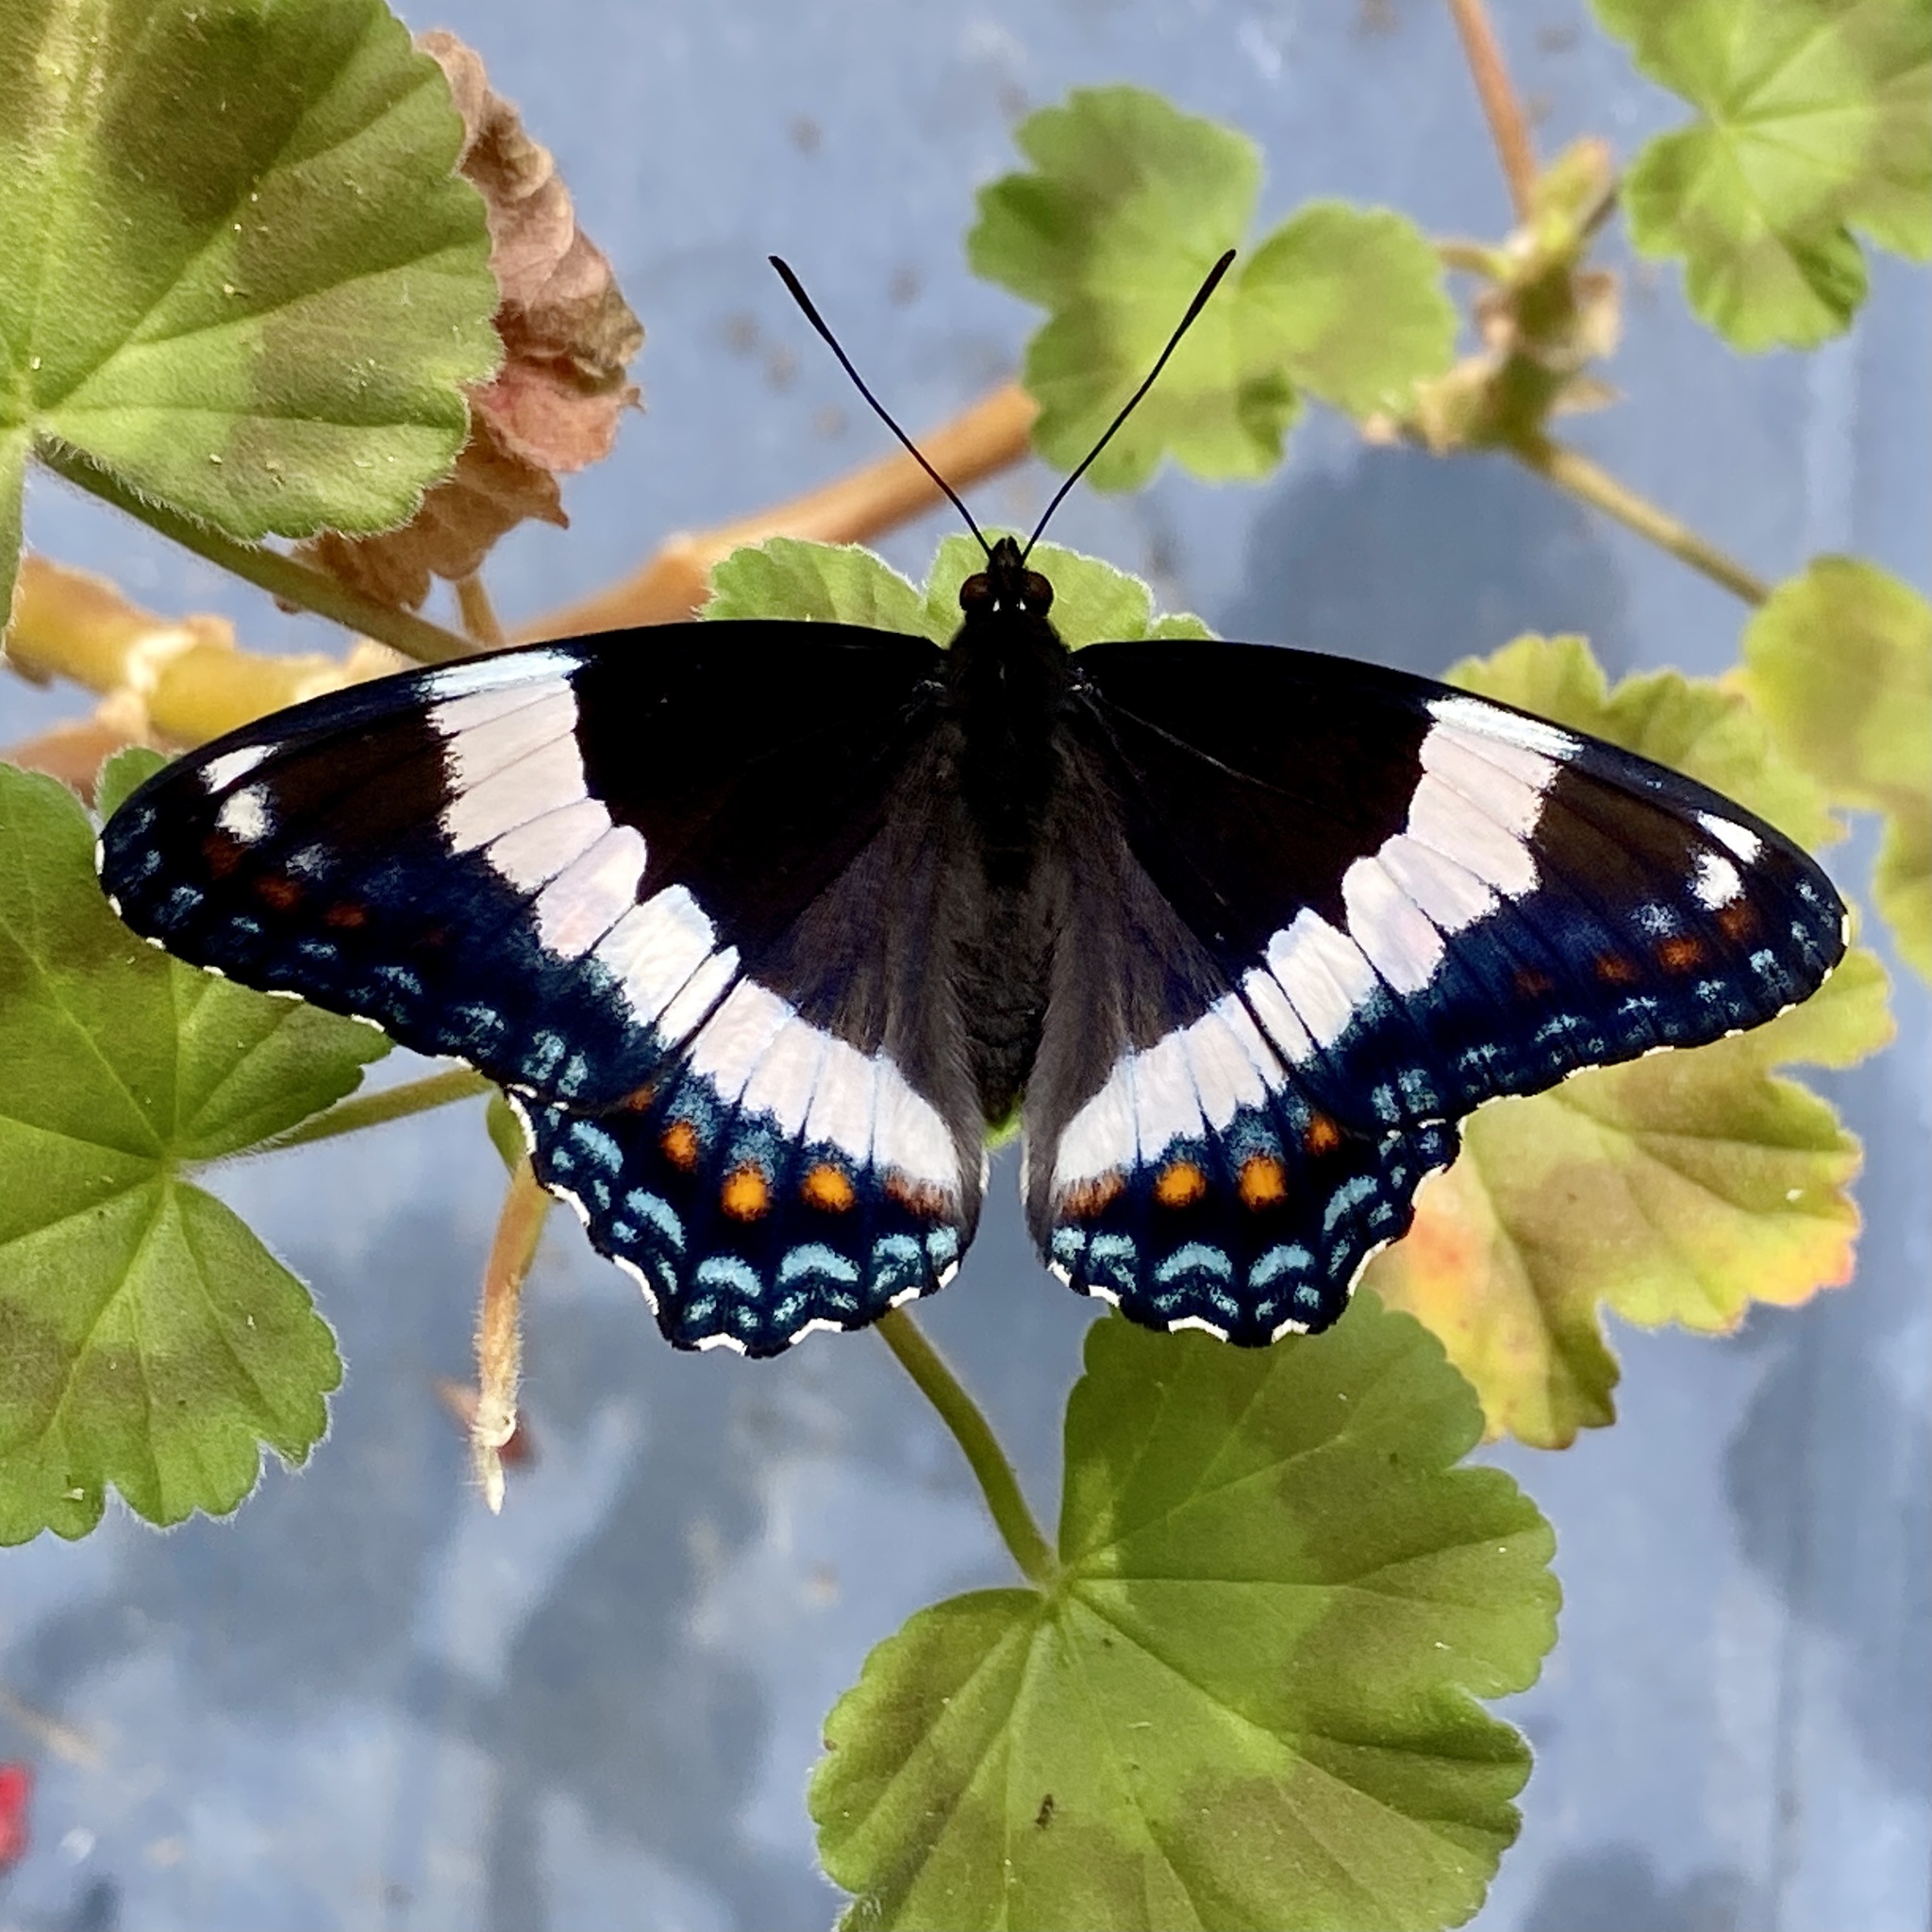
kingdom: Animalia
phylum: Arthropoda
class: Insecta
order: Lepidoptera
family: Nymphalidae
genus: Limenitis
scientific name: Limenitis arthemis
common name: Red-spotted admiral
